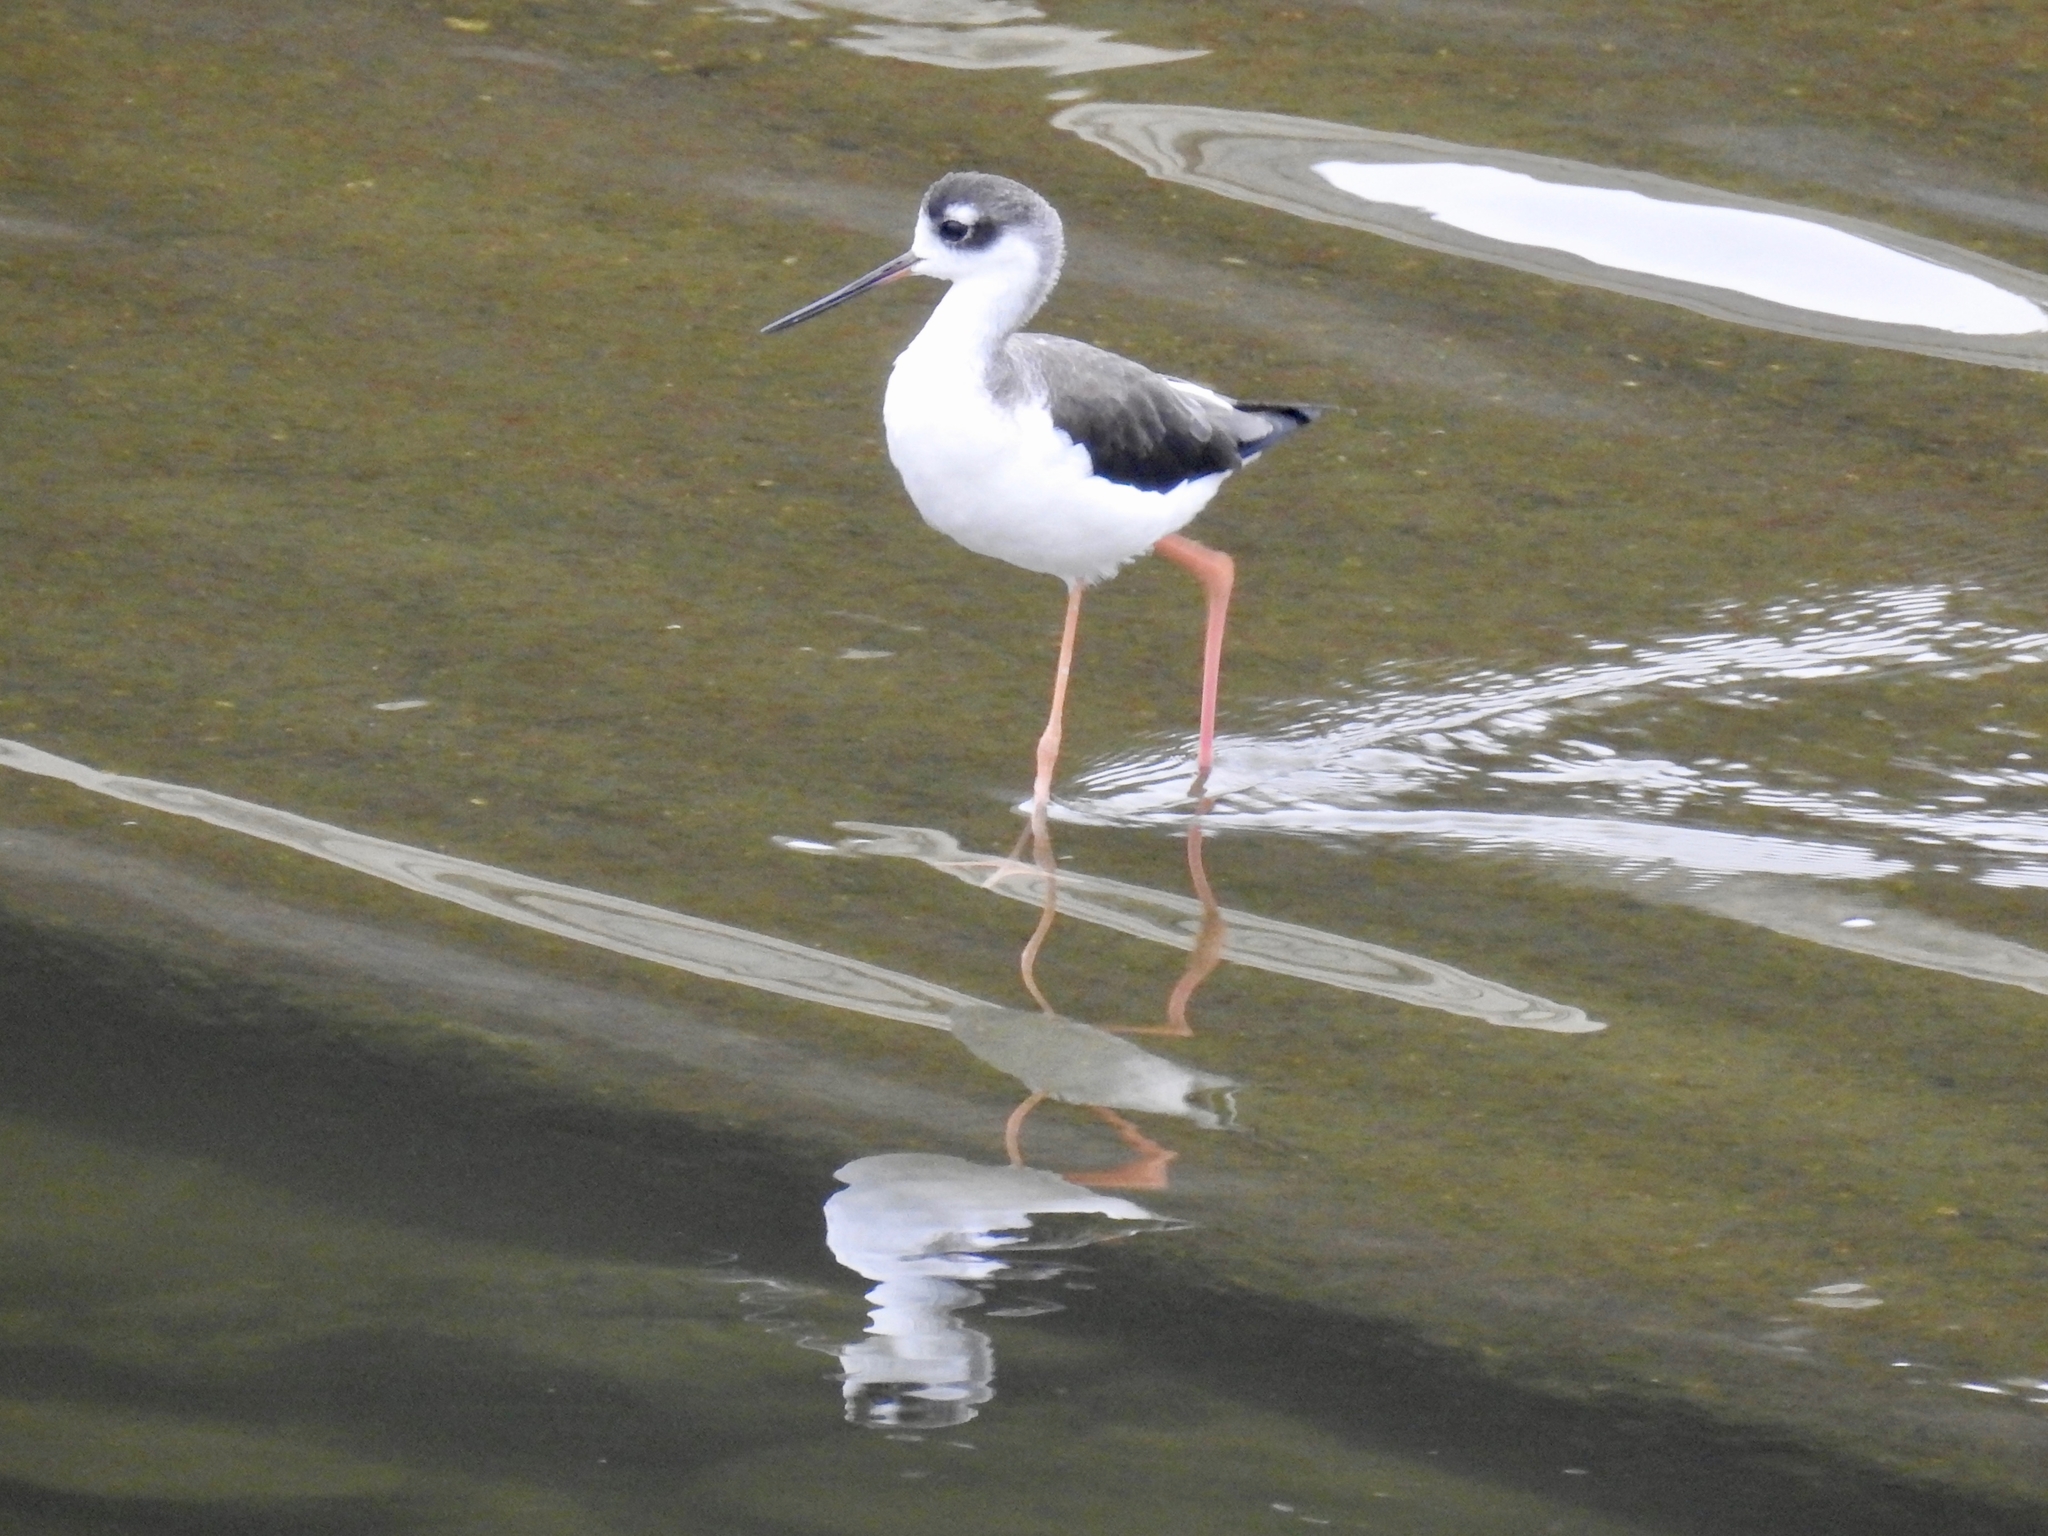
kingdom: Animalia
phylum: Chordata
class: Aves
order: Charadriiformes
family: Recurvirostridae
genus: Himantopus
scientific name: Himantopus mexicanus
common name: Black-necked stilt
